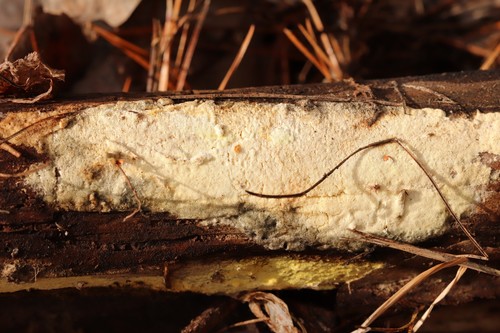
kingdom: Fungi
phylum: Basidiomycota
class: Agaricomycetes
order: Polyporales
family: Fomitopsidaceae
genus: Daedalea
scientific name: Daedalea xantha
